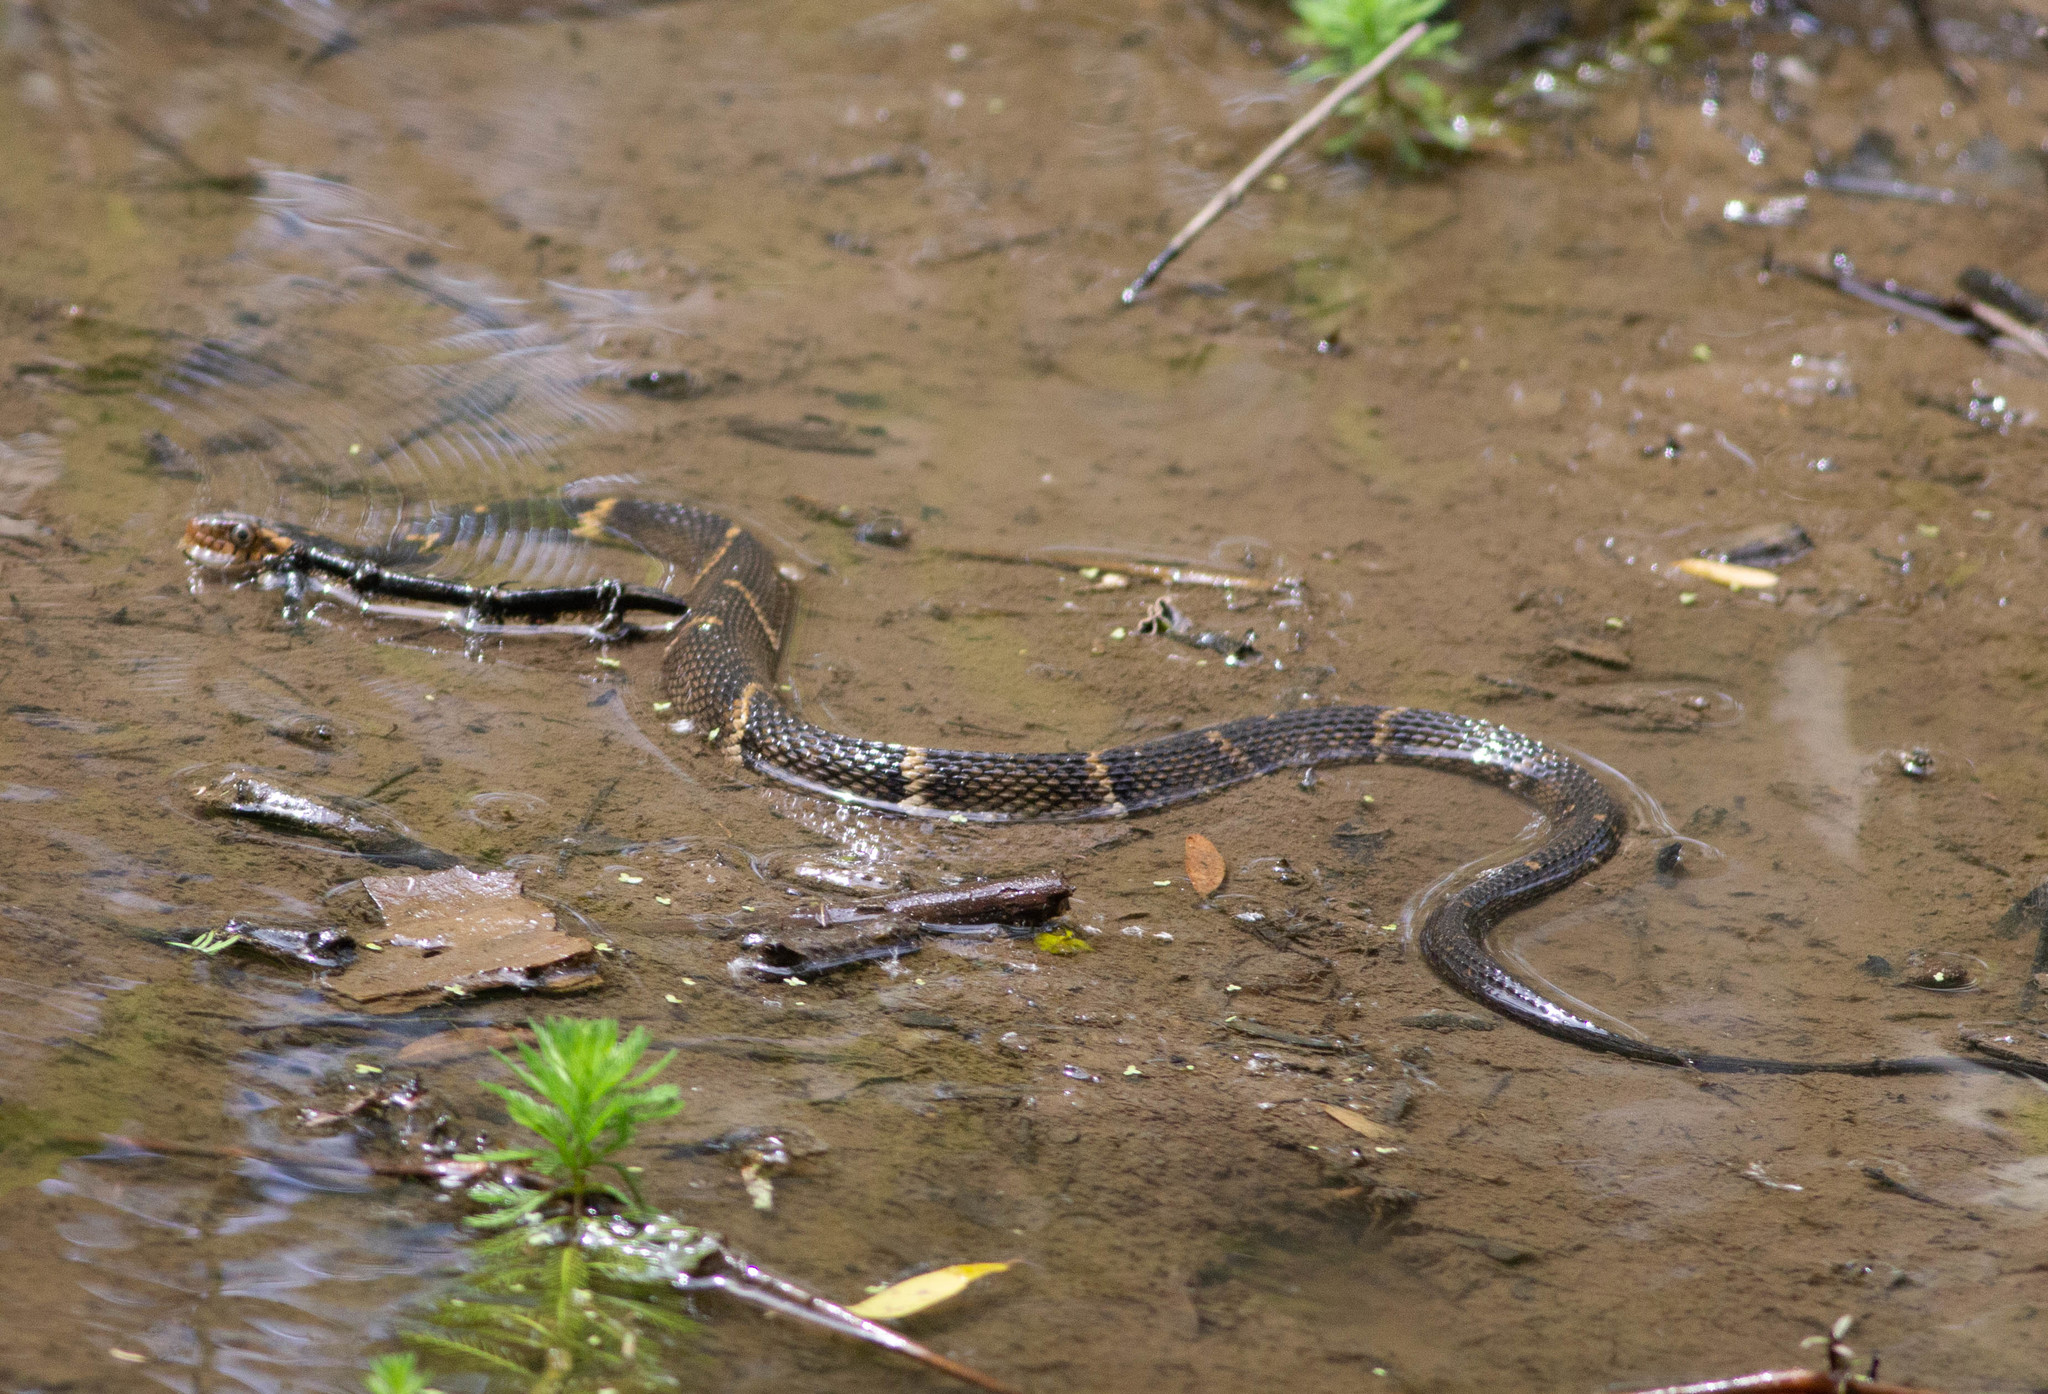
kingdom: Animalia
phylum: Chordata
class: Squamata
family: Colubridae
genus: Nerodia
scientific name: Nerodia fasciata
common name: Southern water snake
